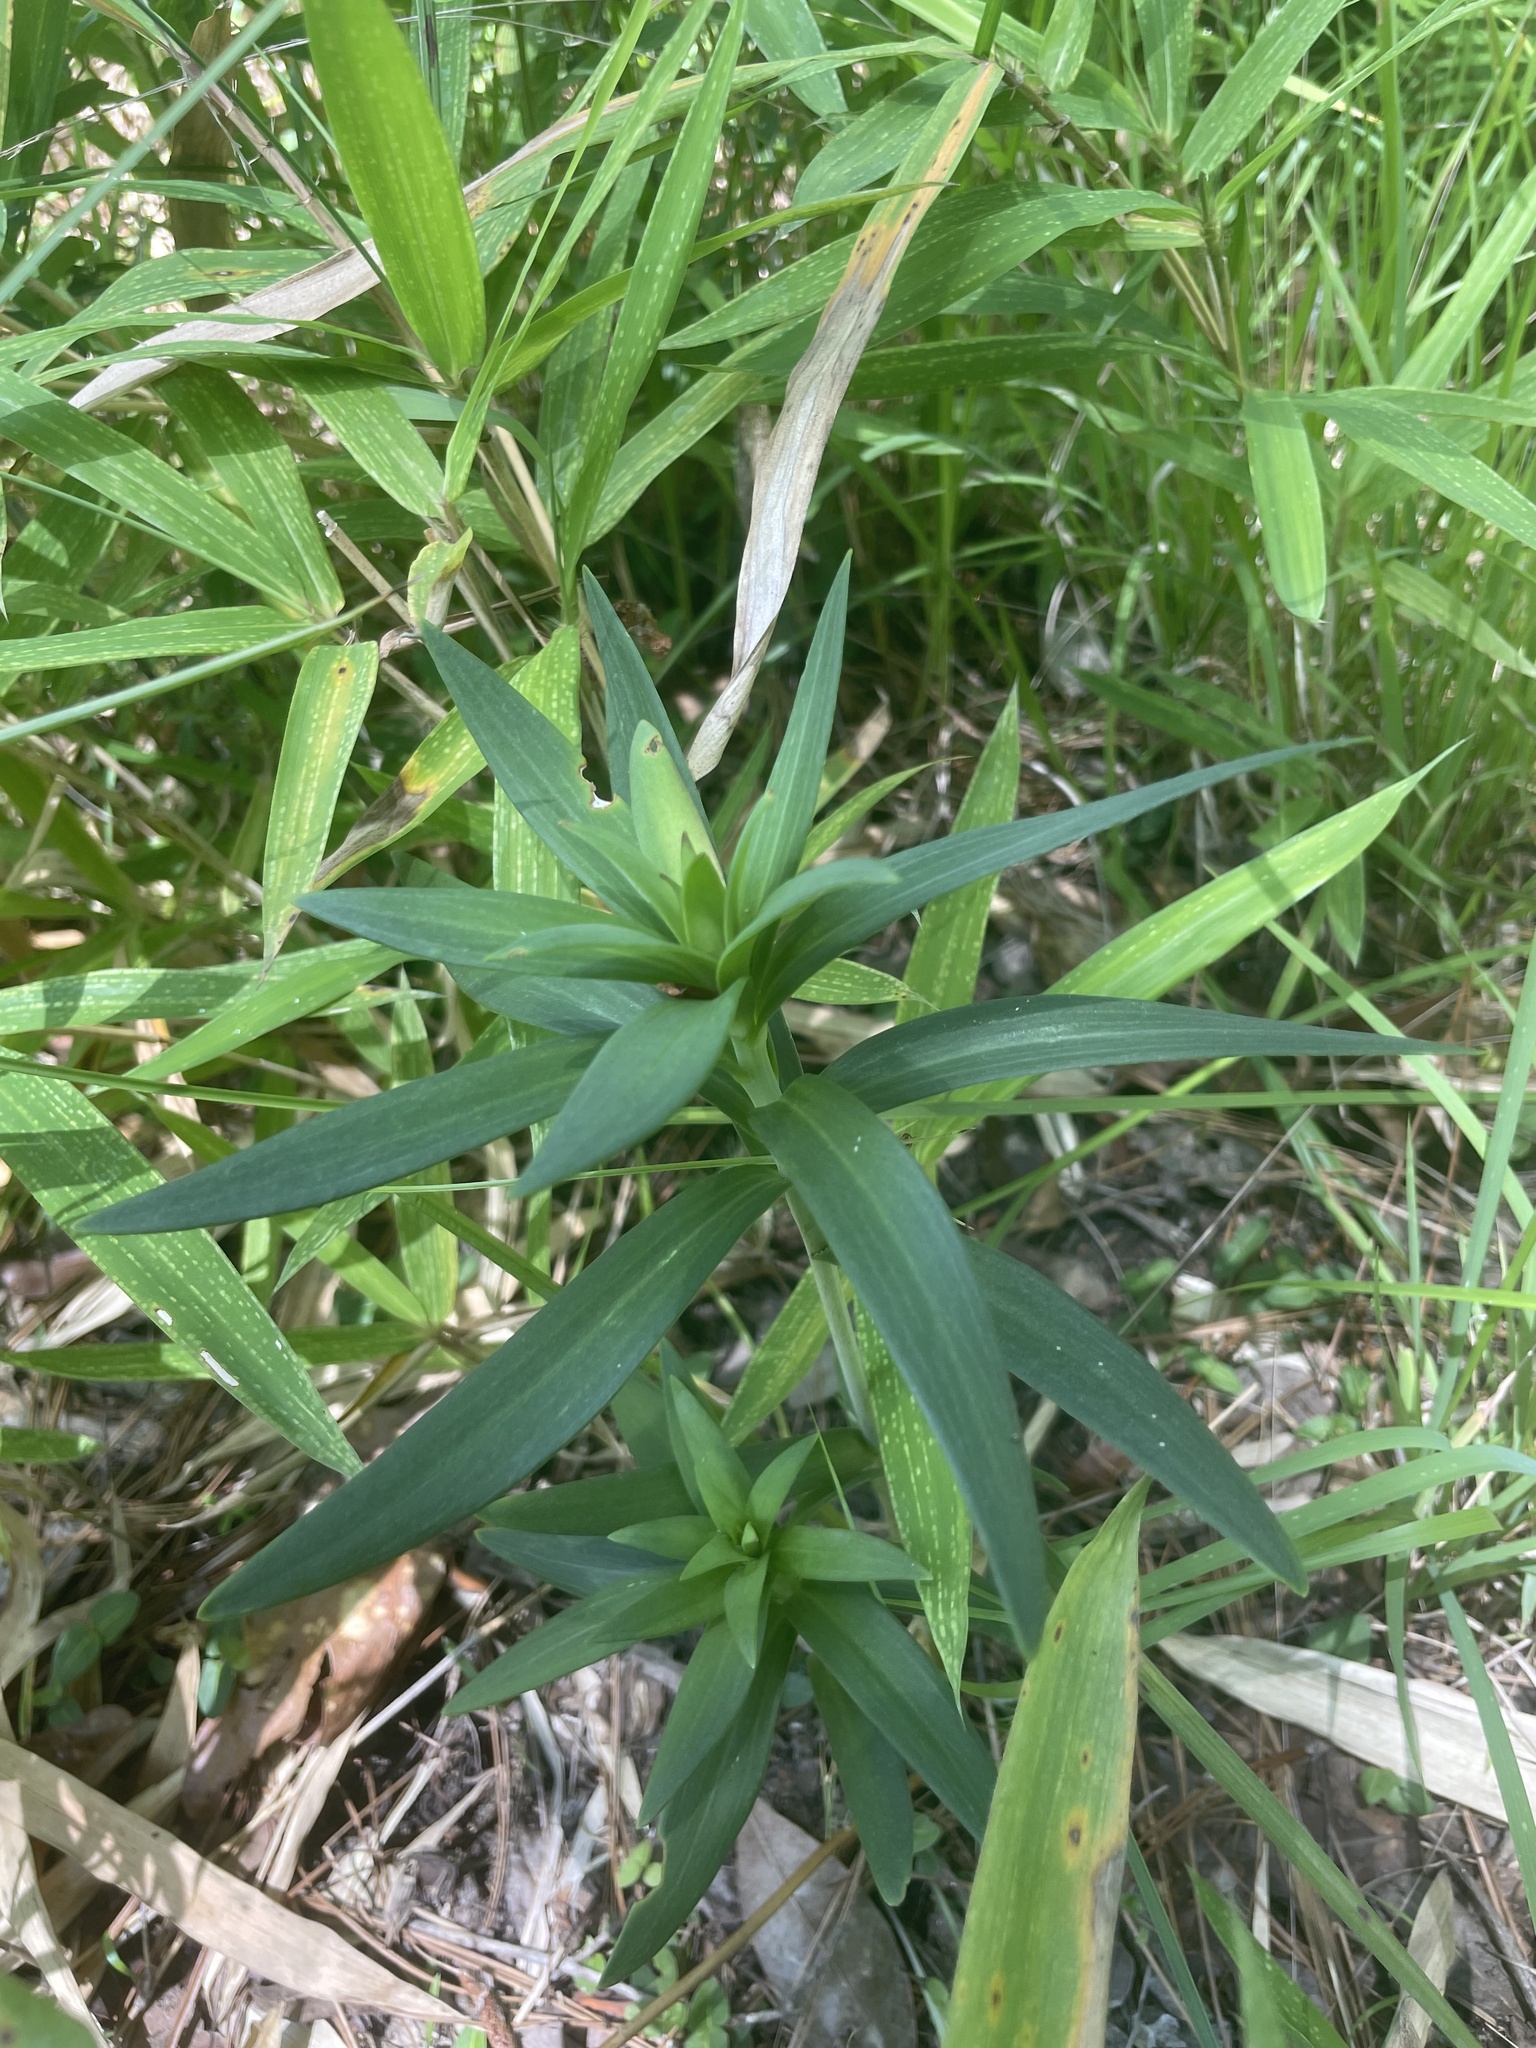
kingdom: Plantae
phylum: Tracheophyta
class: Liliopsida
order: Liliales
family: Liliaceae
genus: Lilium
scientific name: Lilium superbum
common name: American turk's-cap lily
